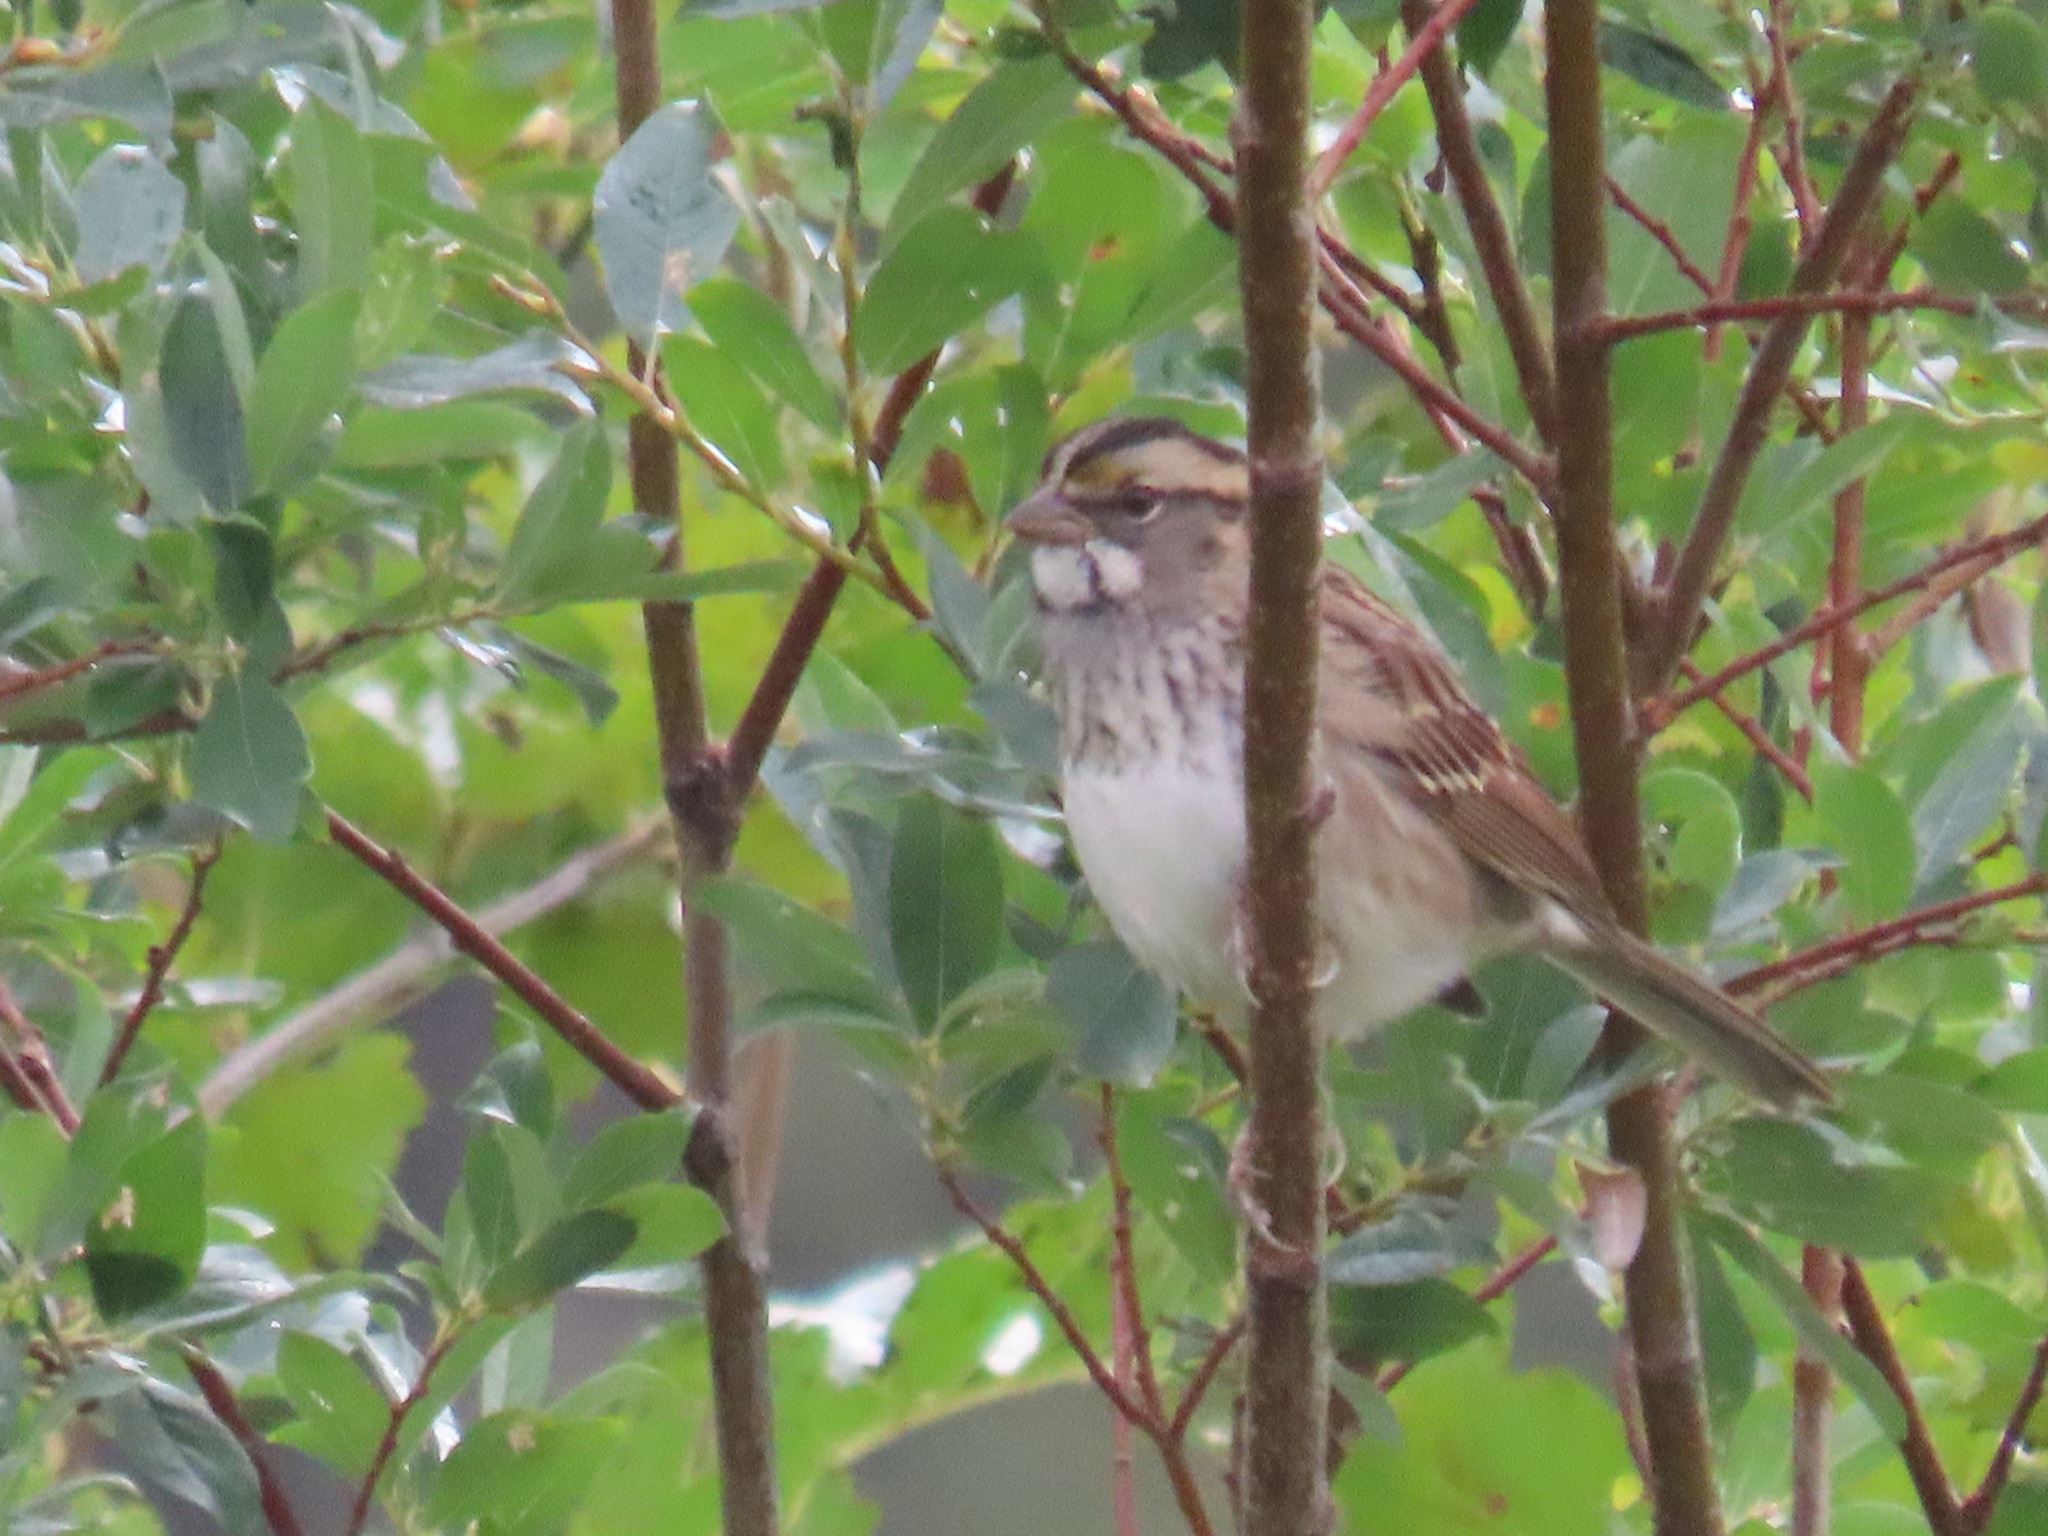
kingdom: Animalia
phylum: Chordata
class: Aves
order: Passeriformes
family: Passerellidae
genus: Zonotrichia
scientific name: Zonotrichia albicollis
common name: White-throated sparrow
